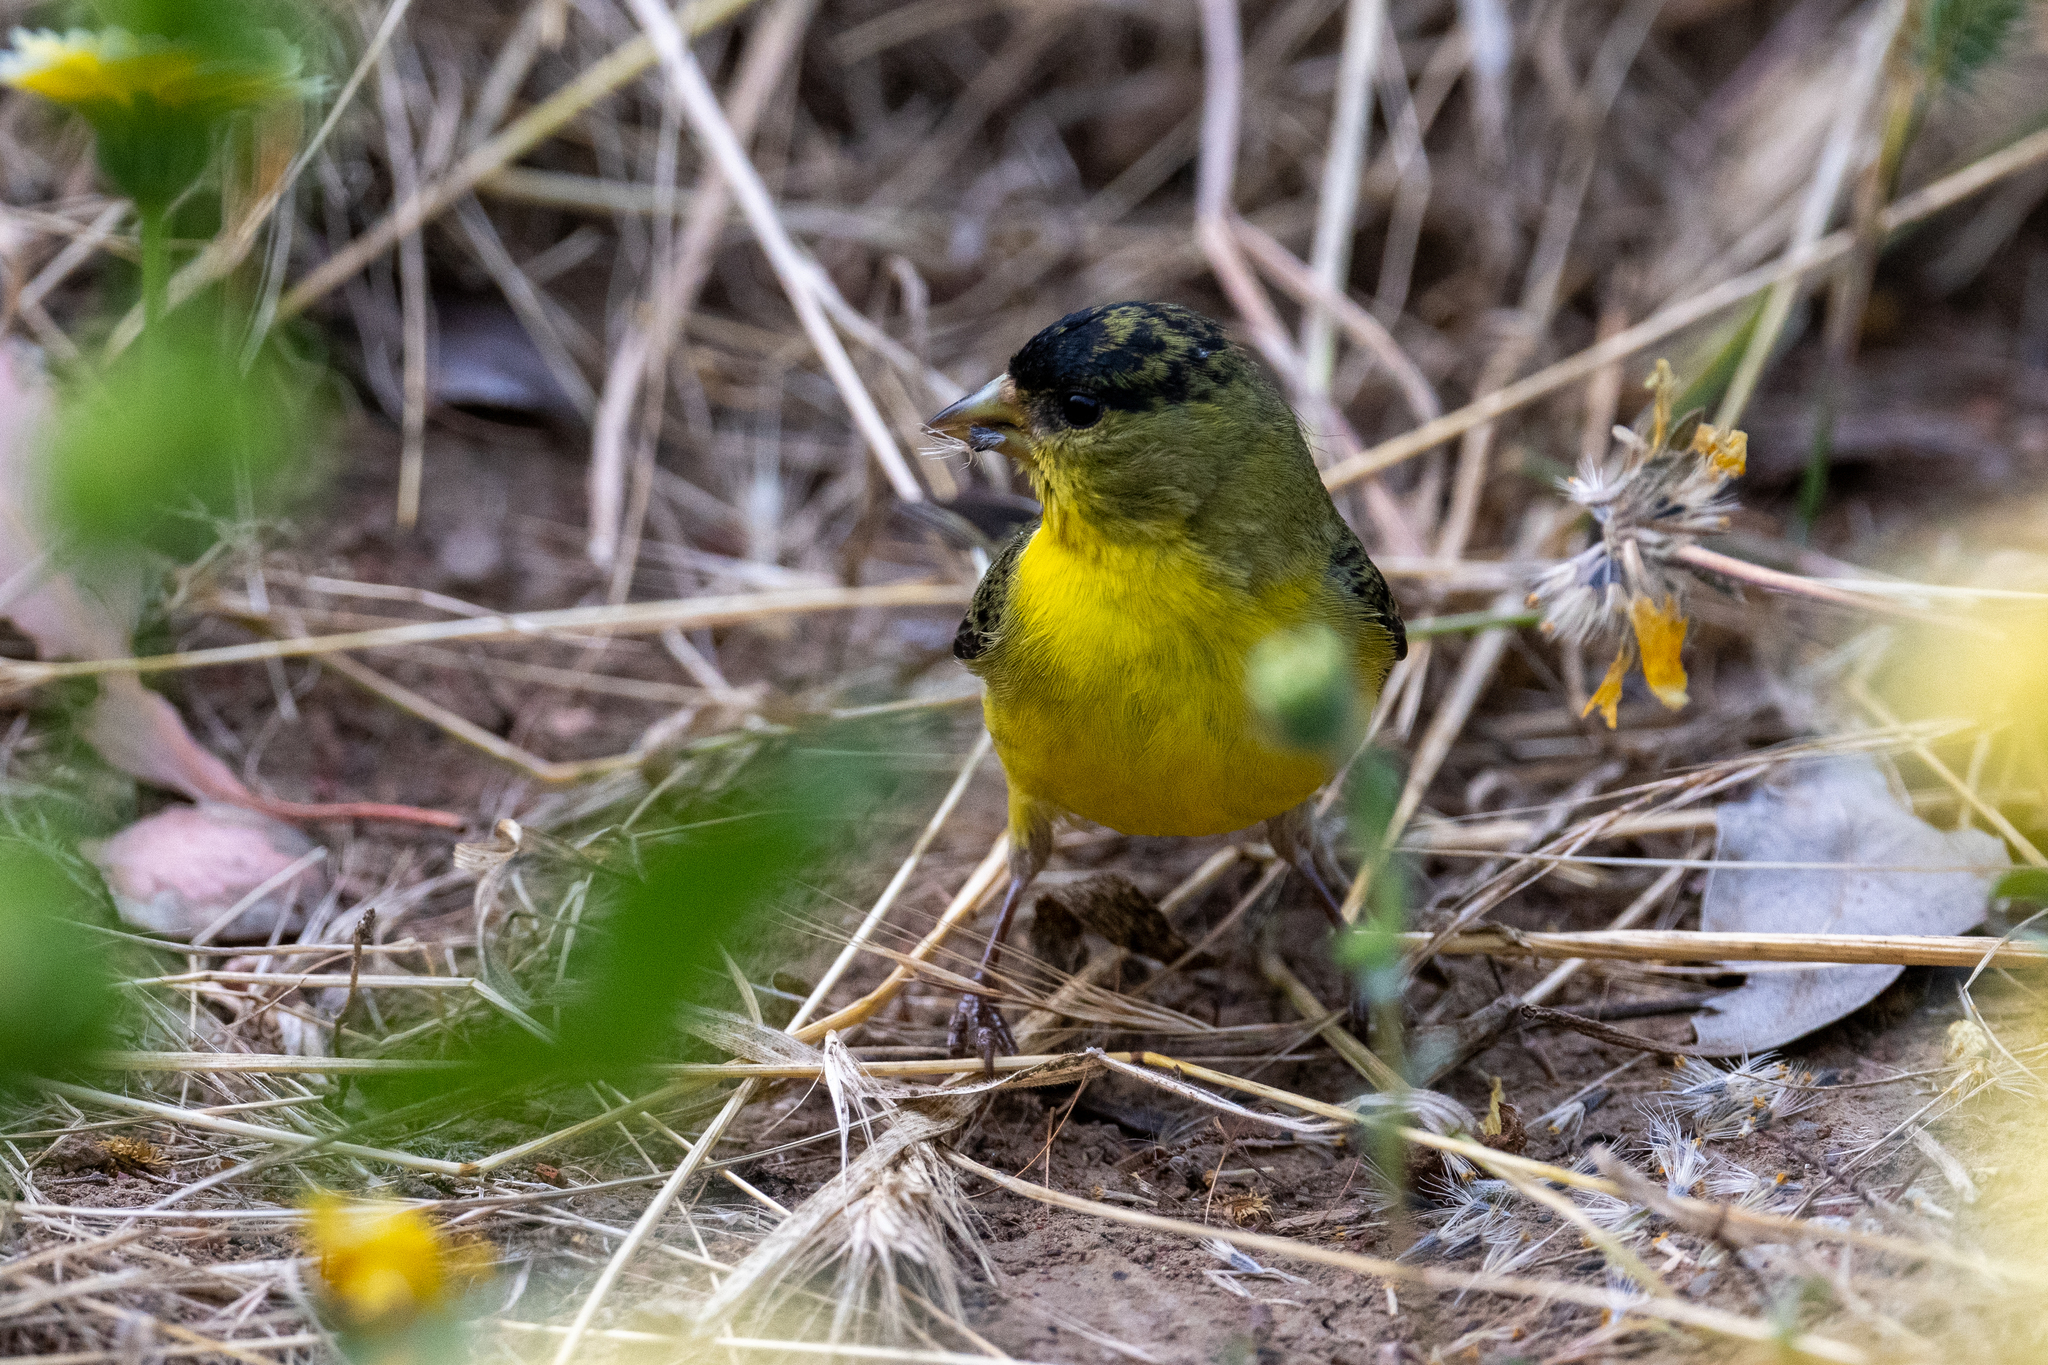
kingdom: Animalia
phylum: Chordata
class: Aves
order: Passeriformes
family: Fringillidae
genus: Spinus
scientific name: Spinus psaltria
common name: Lesser goldfinch
